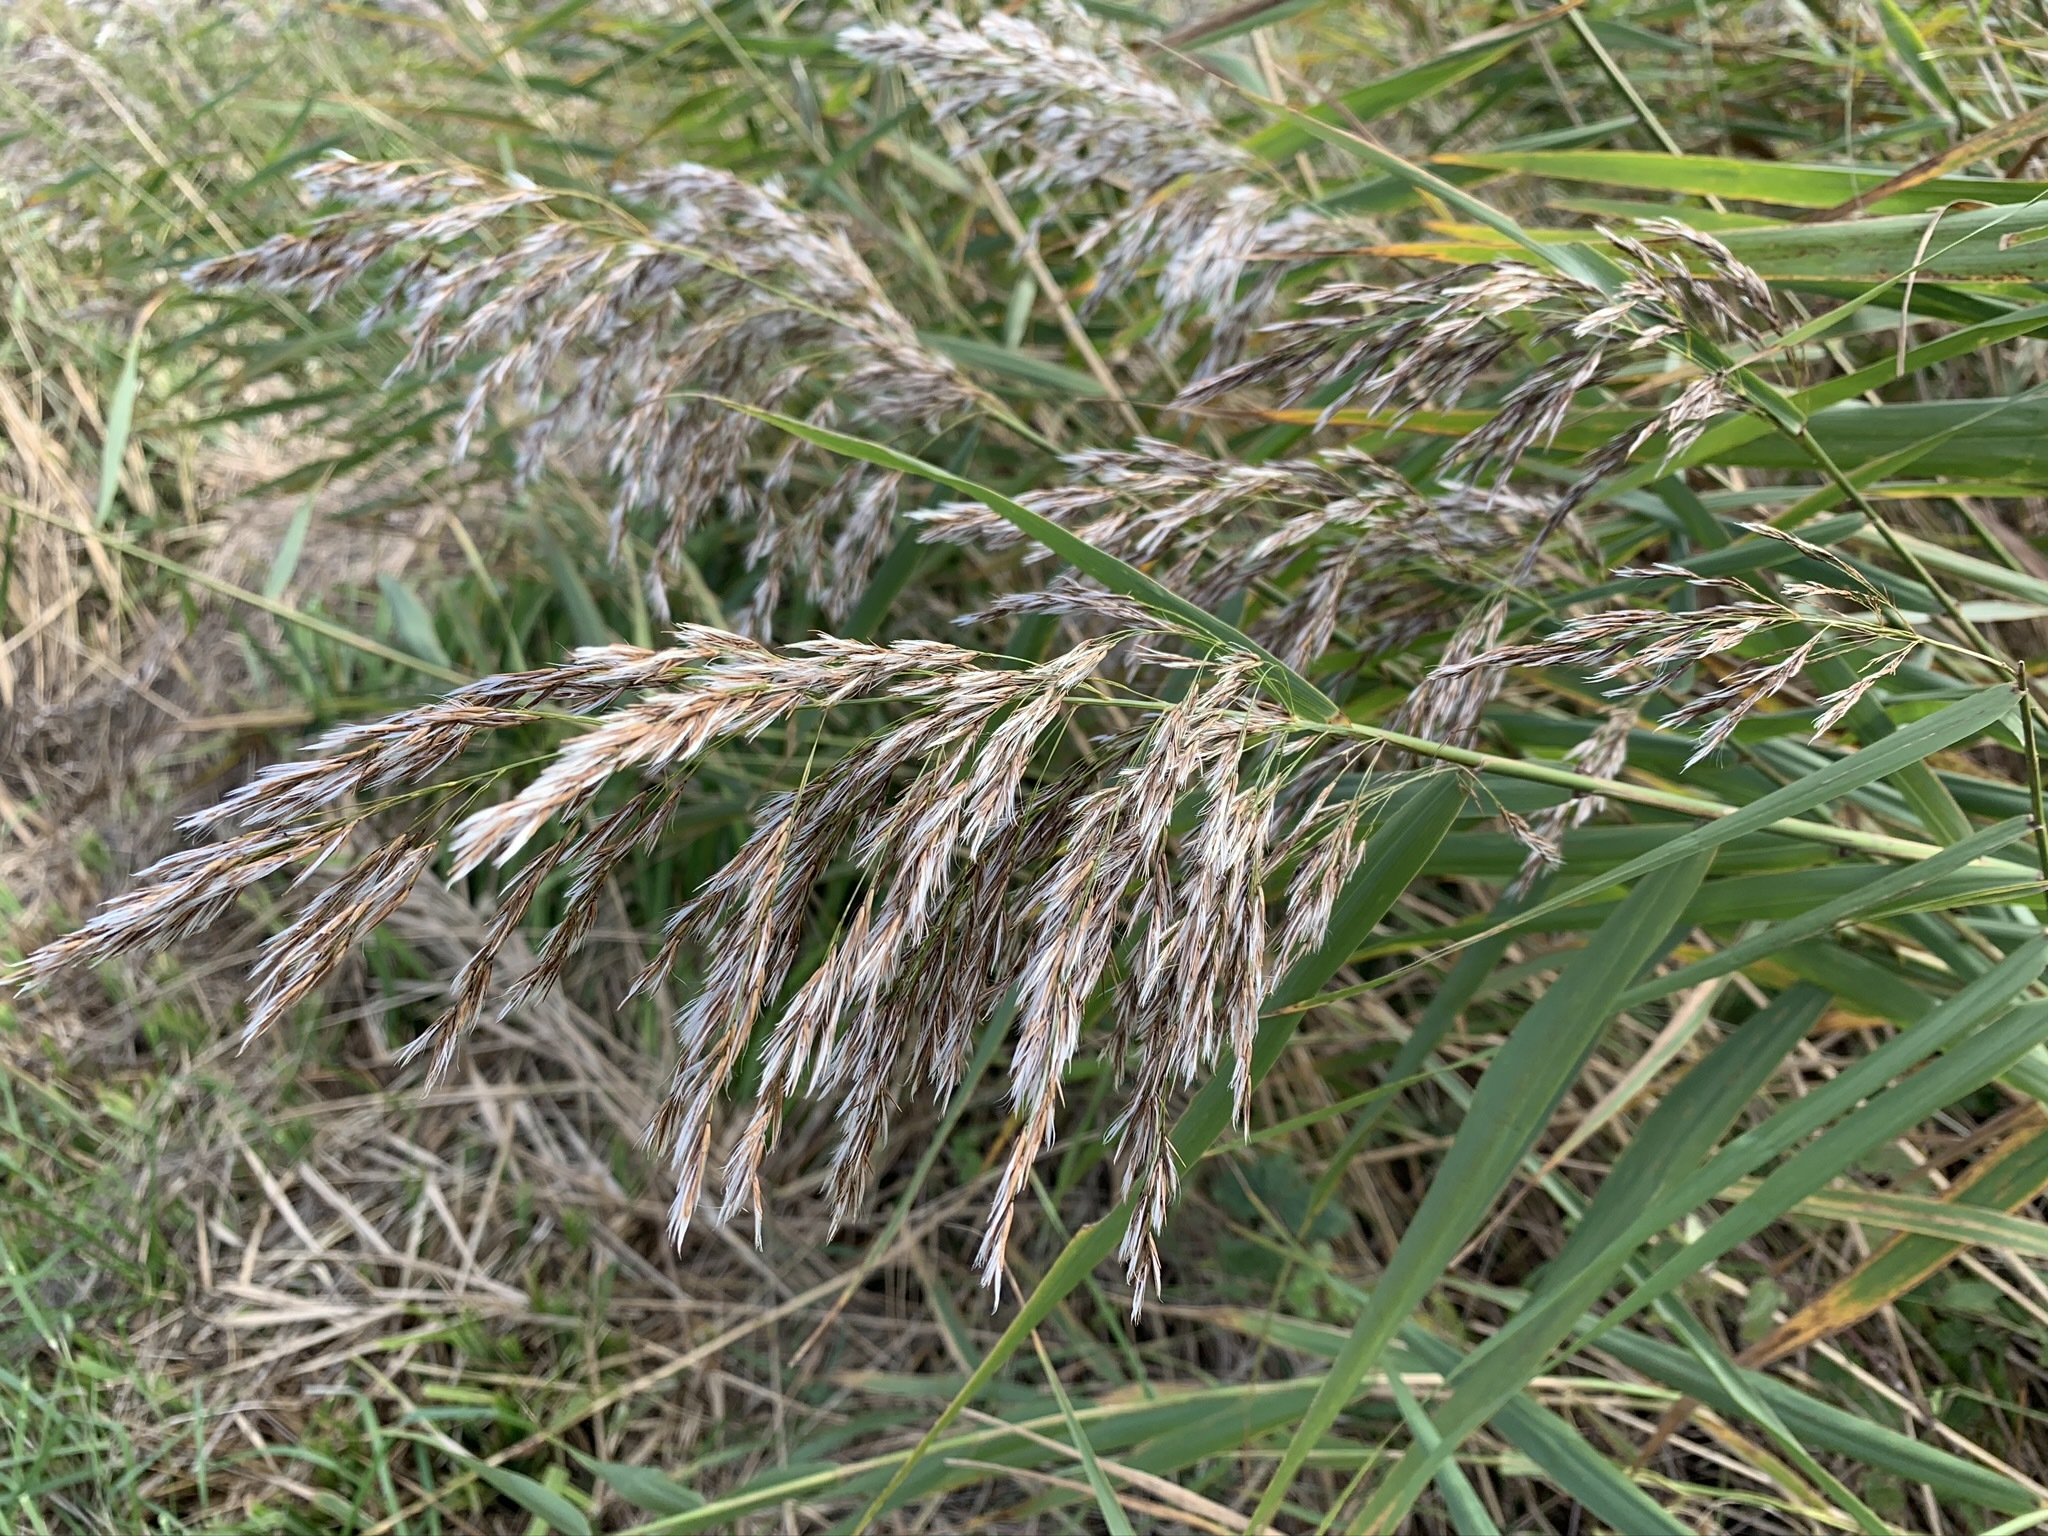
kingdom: Plantae
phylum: Tracheophyta
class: Liliopsida
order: Poales
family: Poaceae
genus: Phragmites
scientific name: Phragmites australis
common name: Common reed
